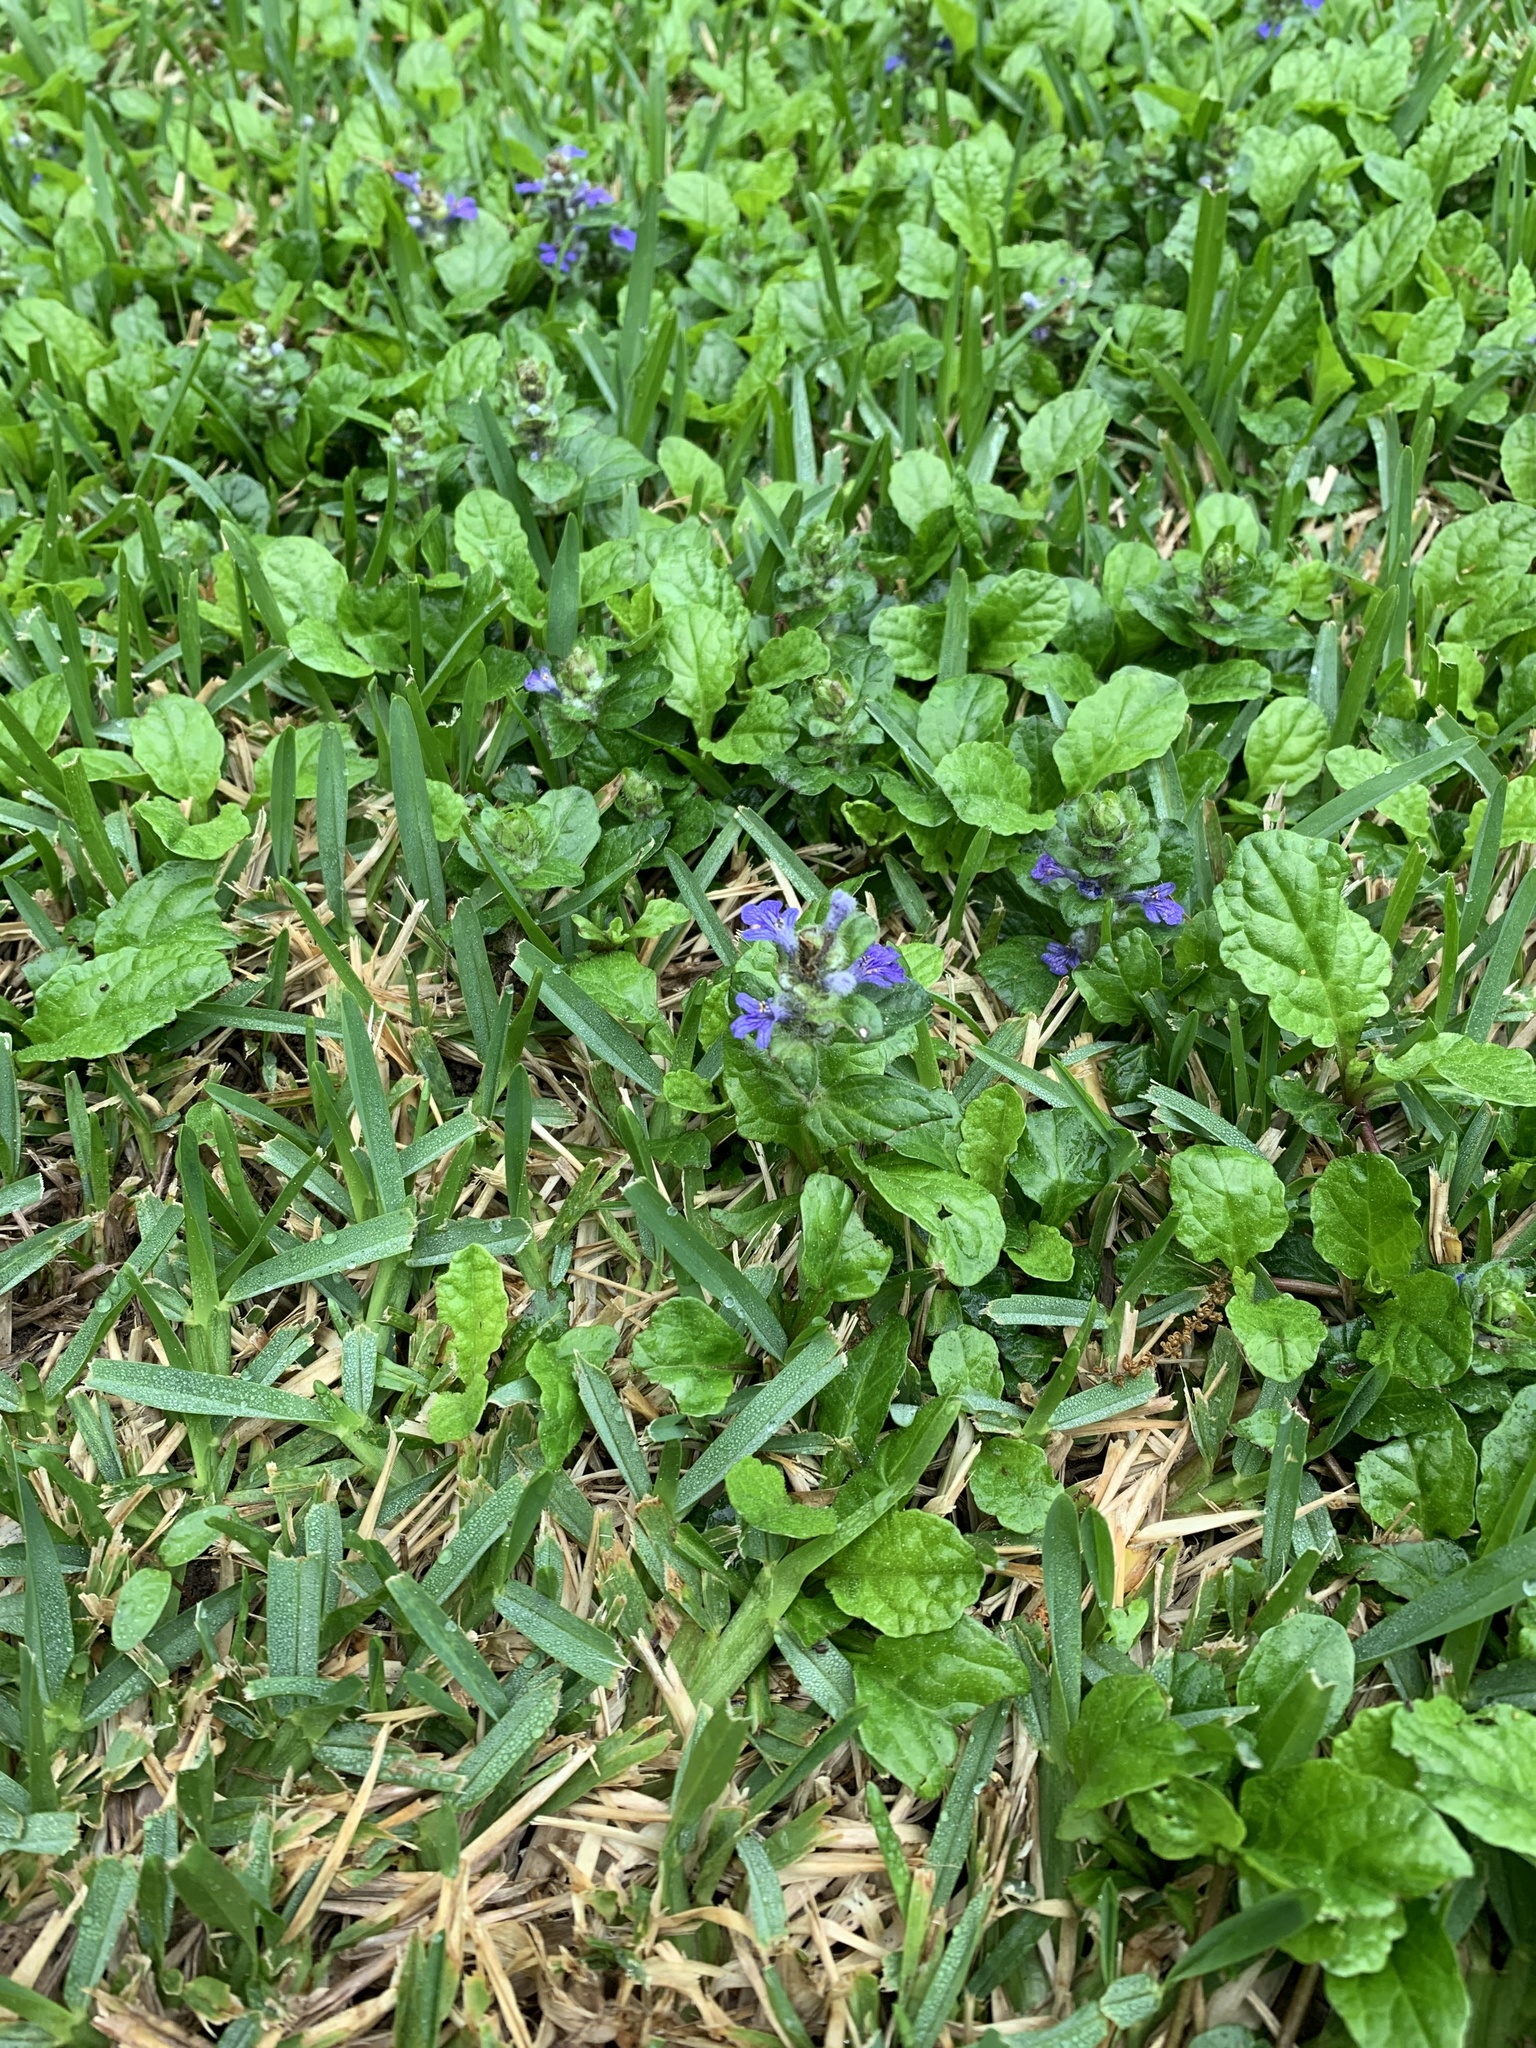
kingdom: Plantae
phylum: Tracheophyta
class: Magnoliopsida
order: Lamiales
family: Lamiaceae
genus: Ajuga
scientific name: Ajuga reptans
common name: Bugle
